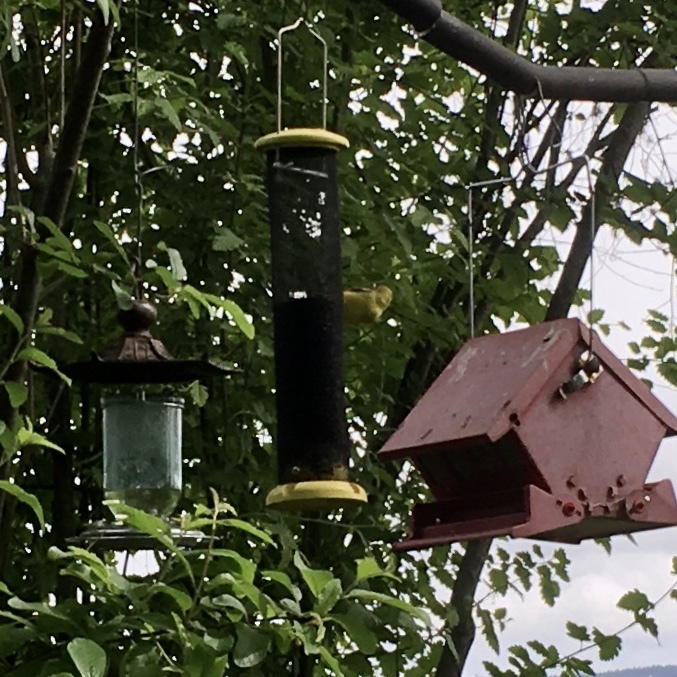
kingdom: Animalia
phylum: Chordata
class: Aves
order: Passeriformes
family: Fringillidae
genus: Spinus
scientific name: Spinus tristis
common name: American goldfinch
